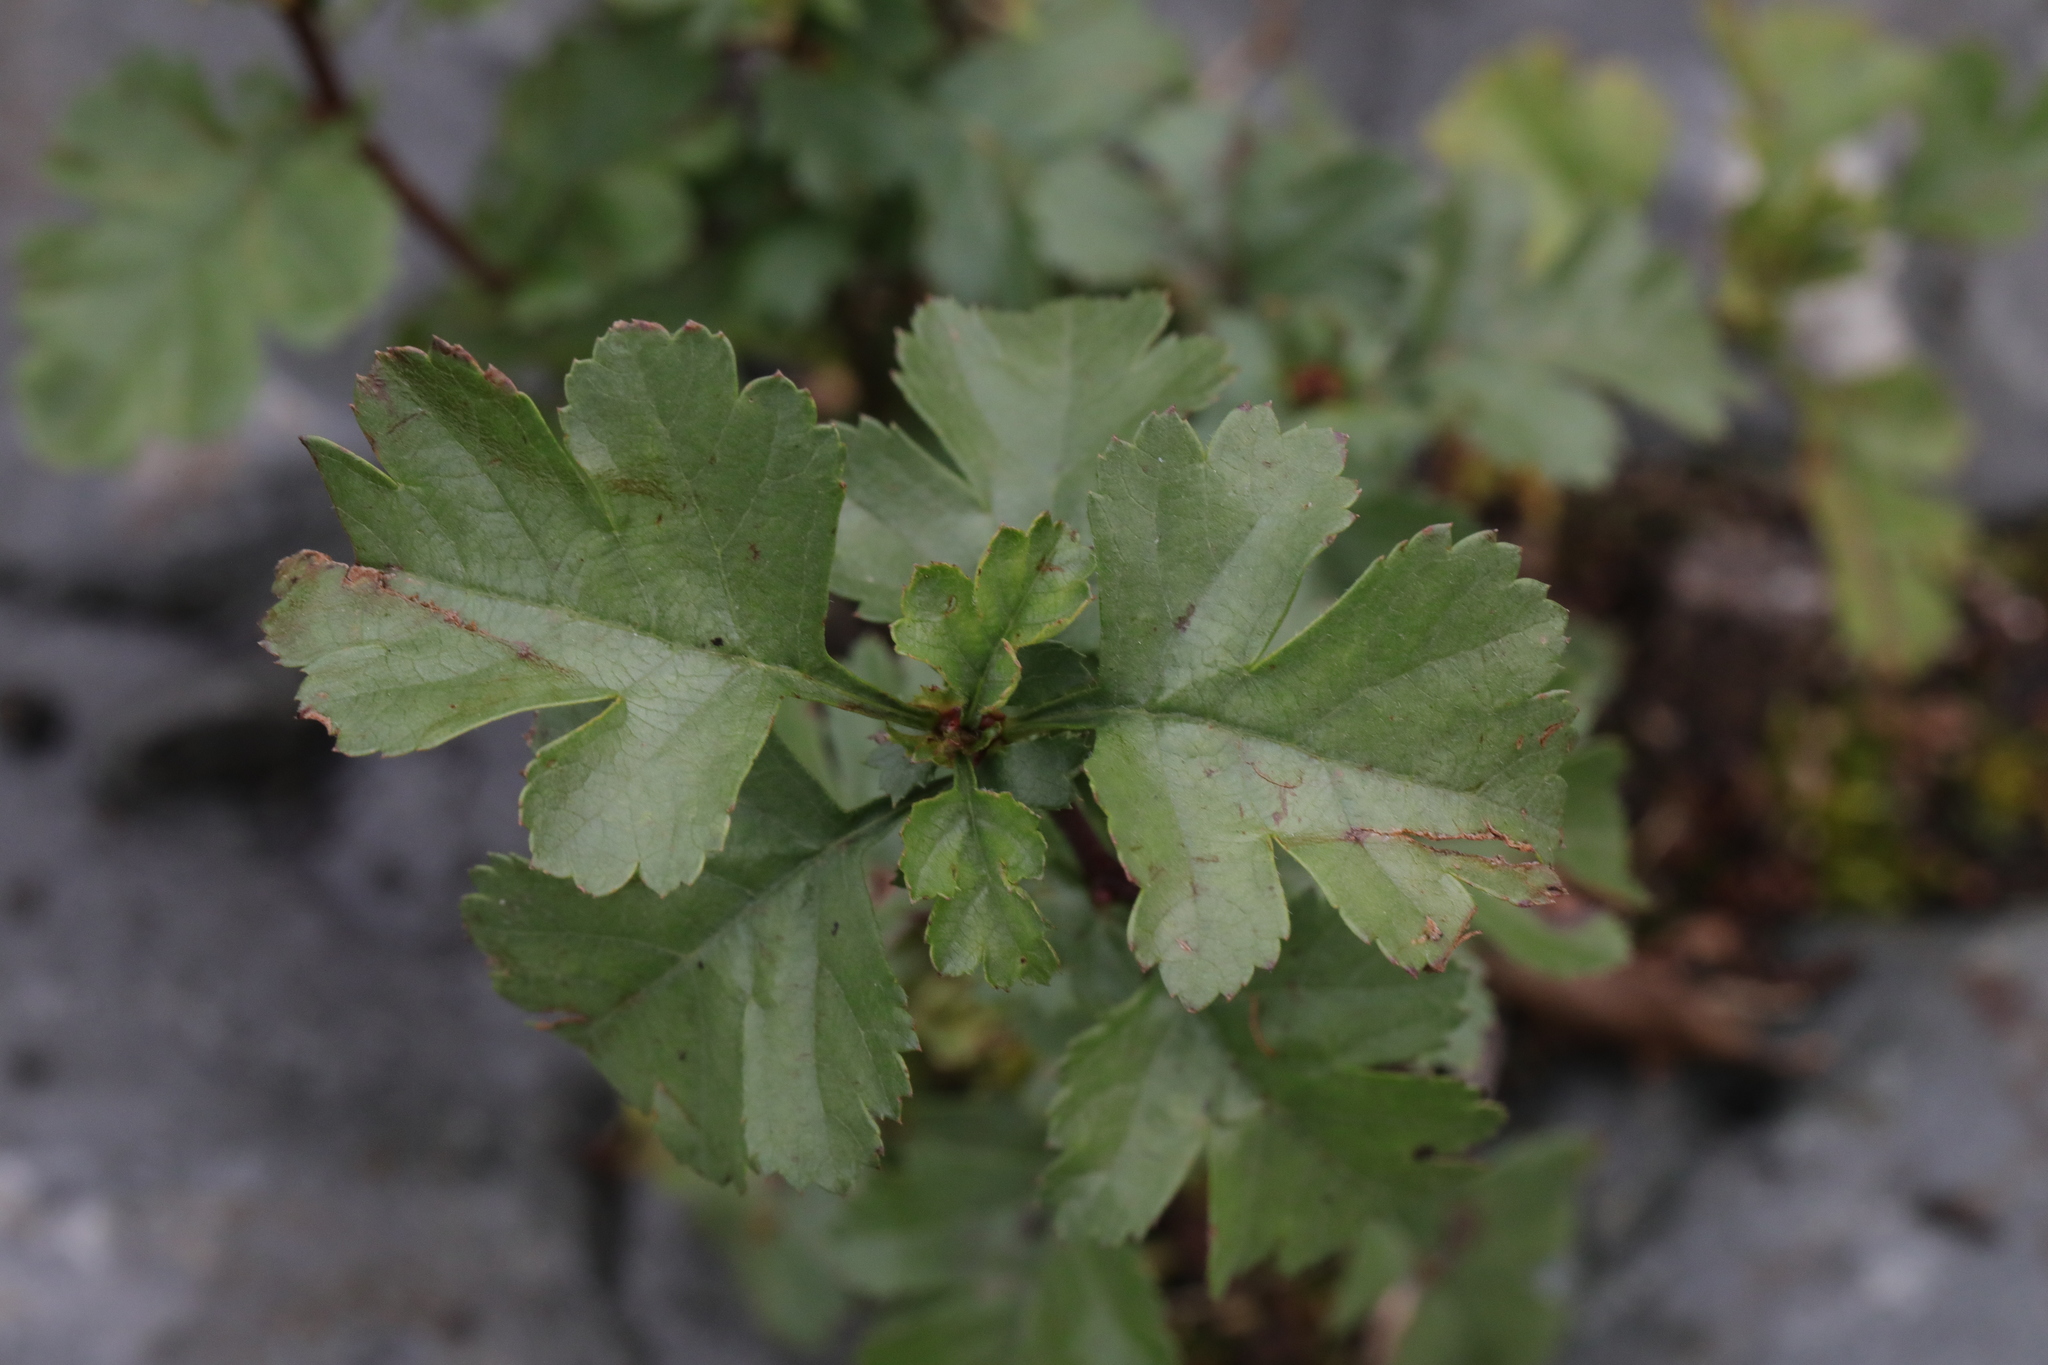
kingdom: Plantae
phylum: Tracheophyta
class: Magnoliopsida
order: Rosales
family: Rosaceae
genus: Crataegus
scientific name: Crataegus monogyna
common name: Hawthorn
